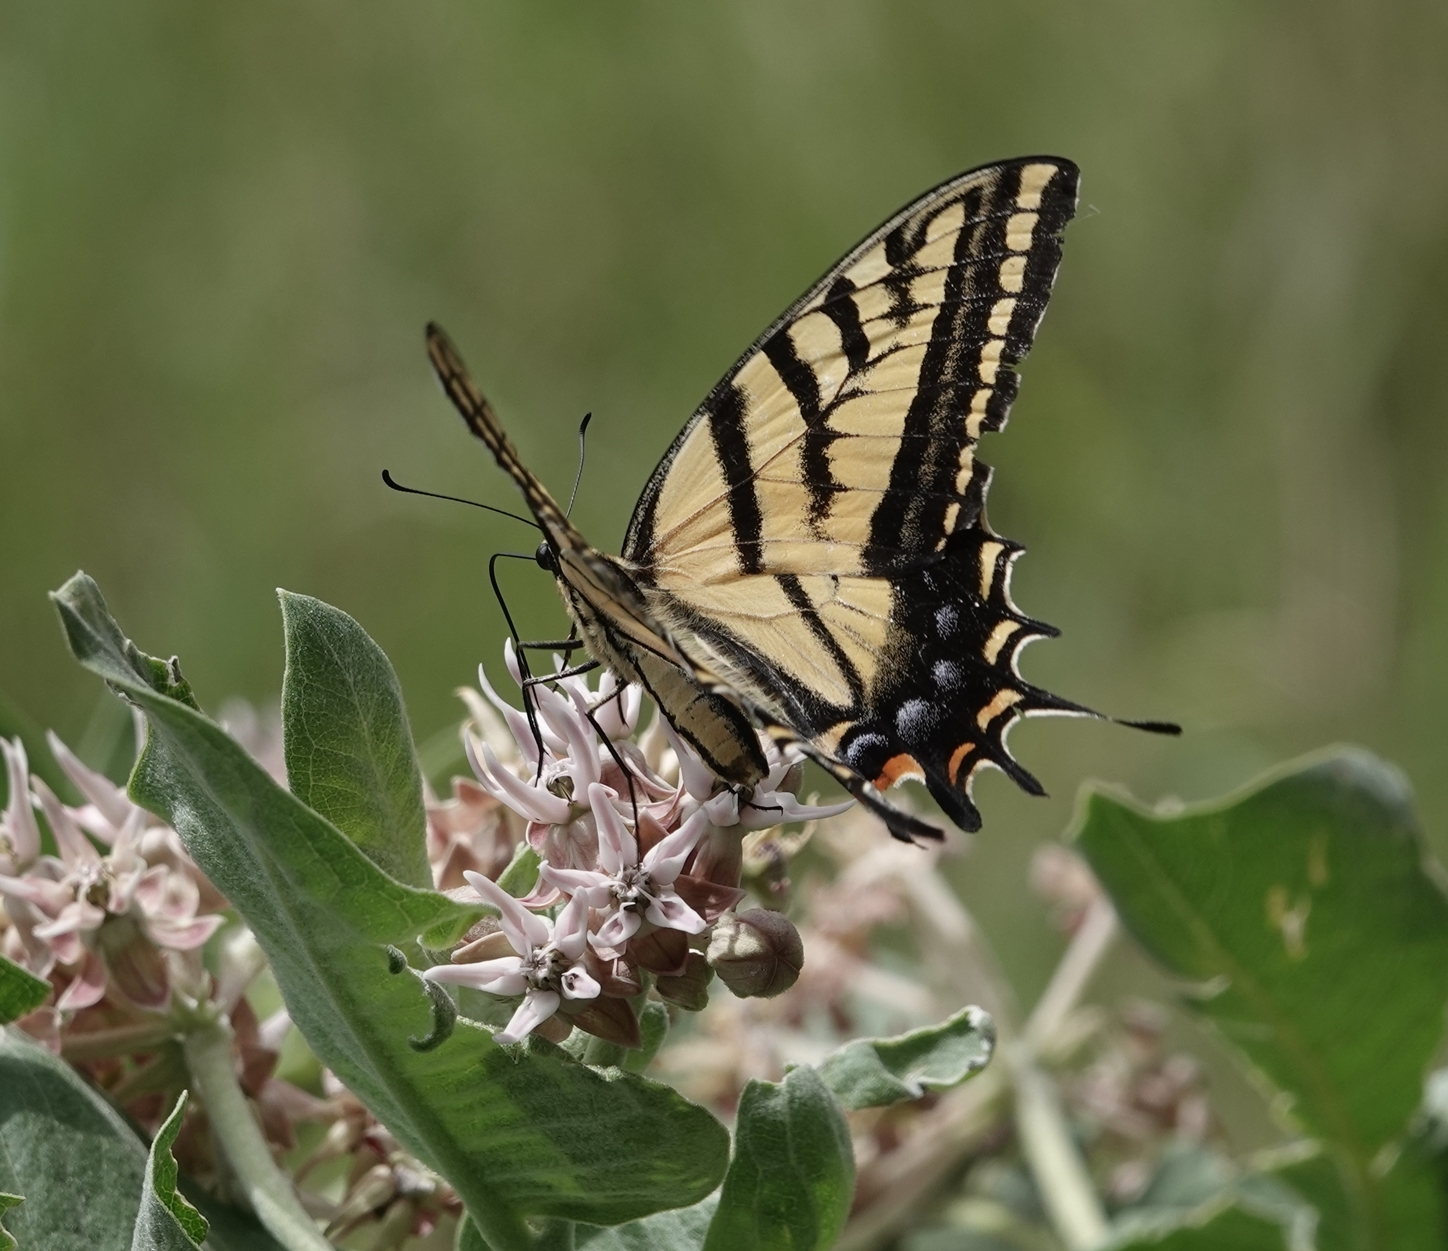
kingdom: Animalia
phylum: Arthropoda
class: Insecta
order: Lepidoptera
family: Papilionidae
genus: Papilio
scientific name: Papilio multicaudata
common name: Two-tailed tiger swallowtail
